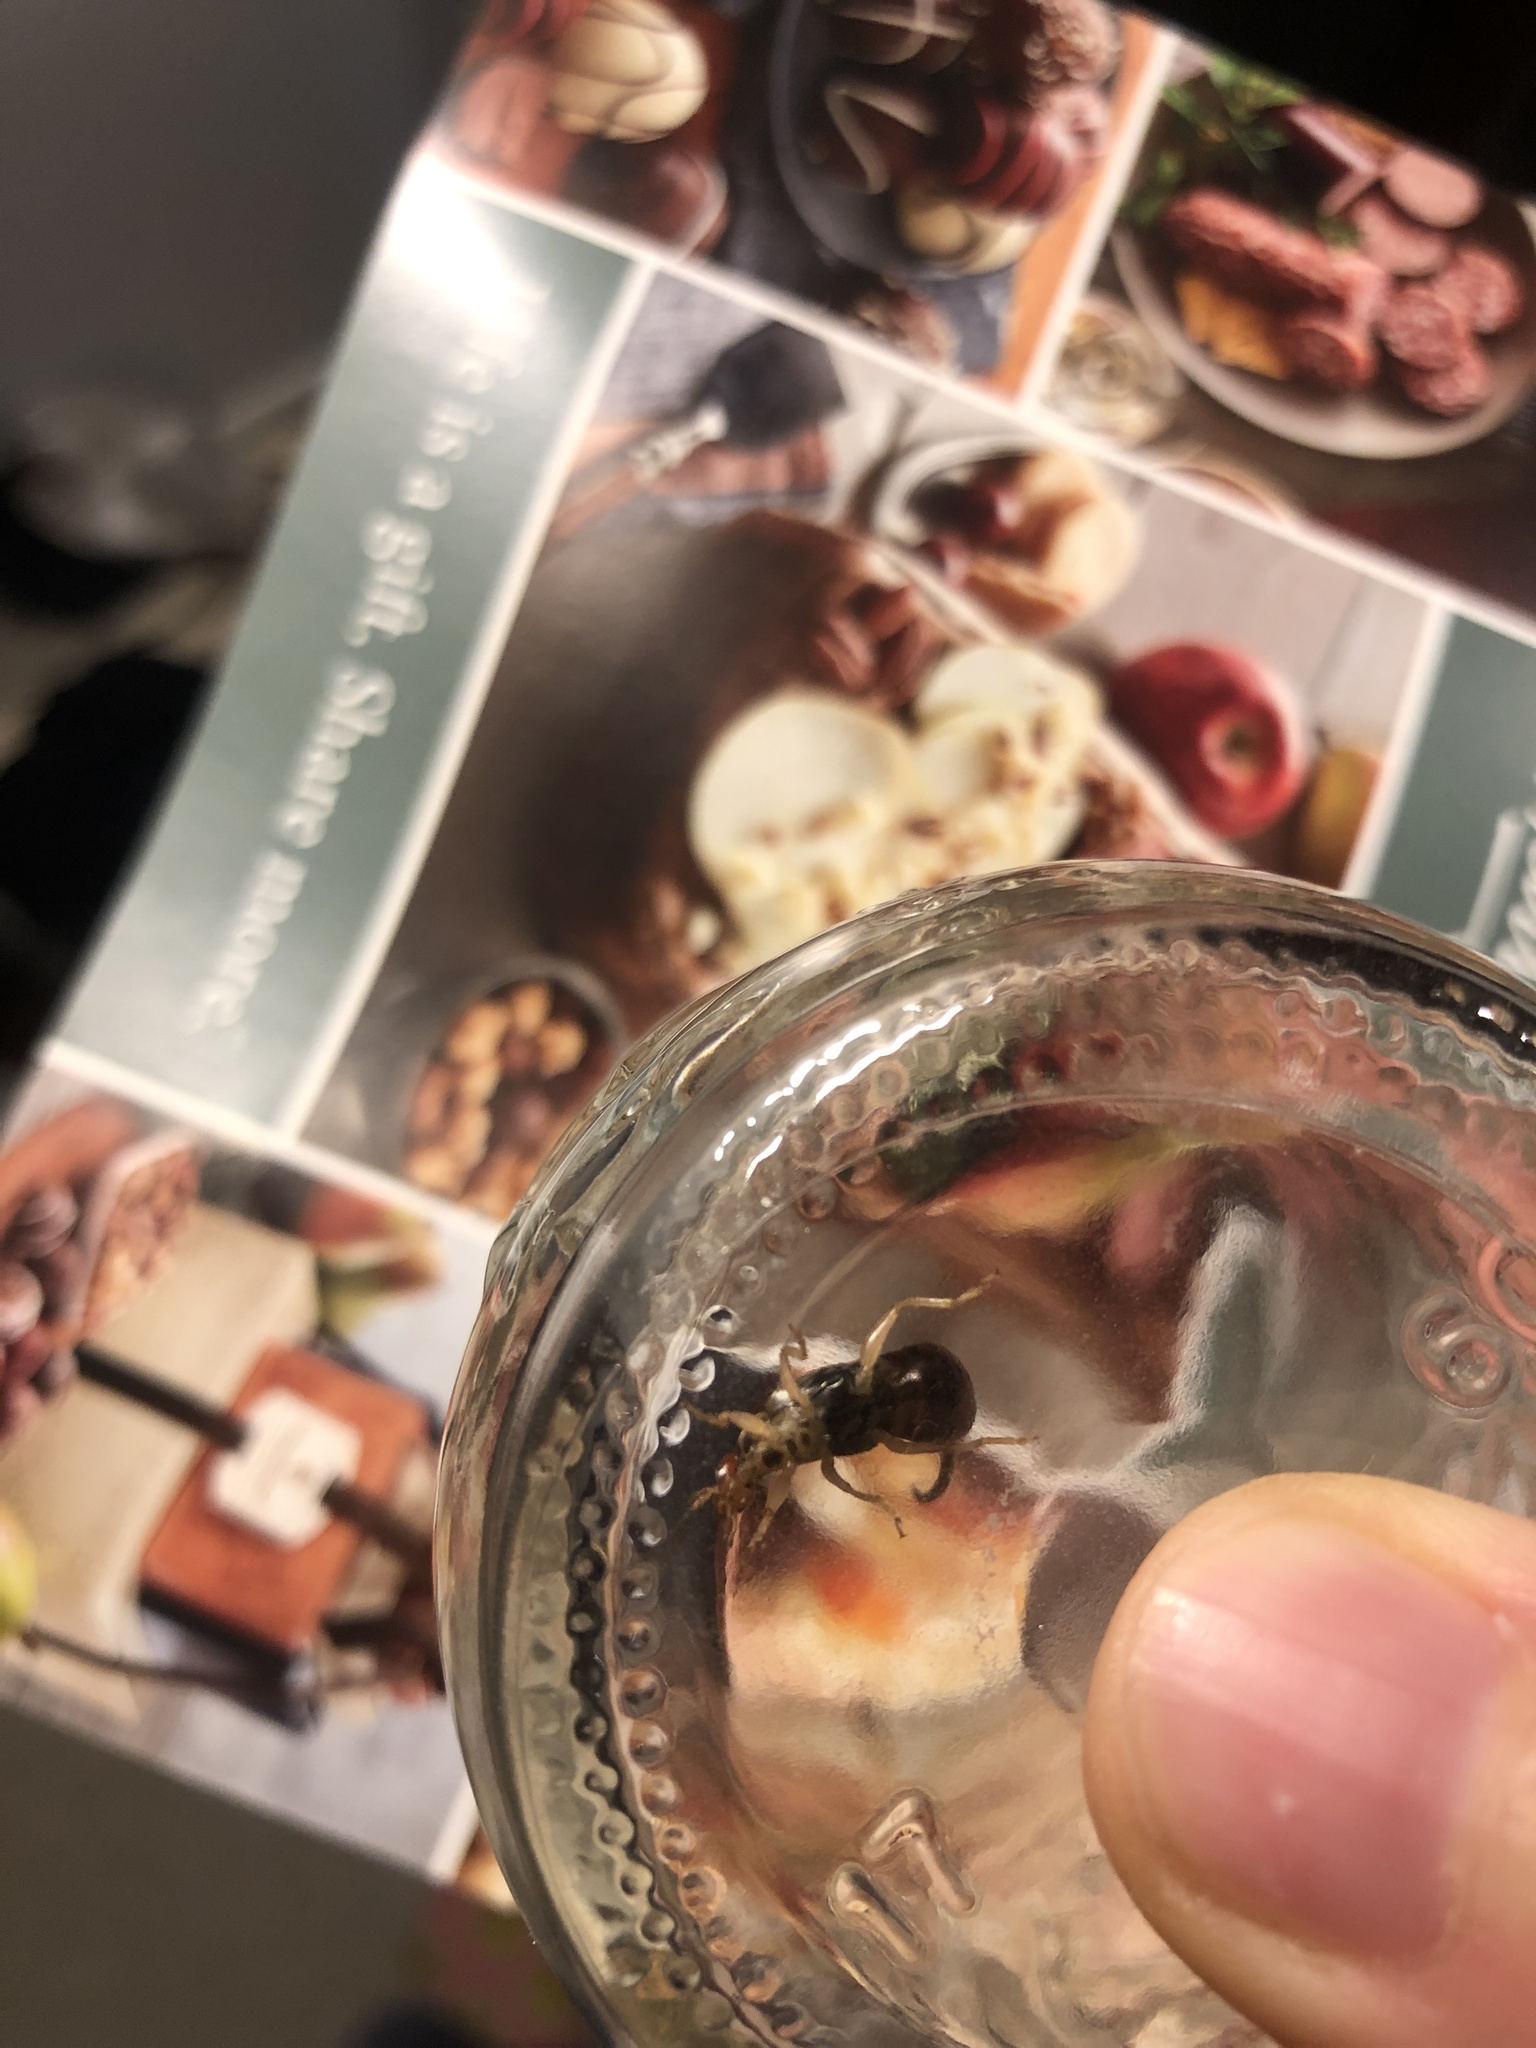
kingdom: Animalia
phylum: Arthropoda
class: Insecta
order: Dermaptera
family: Forficulidae
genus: Forficula
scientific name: Forficula
